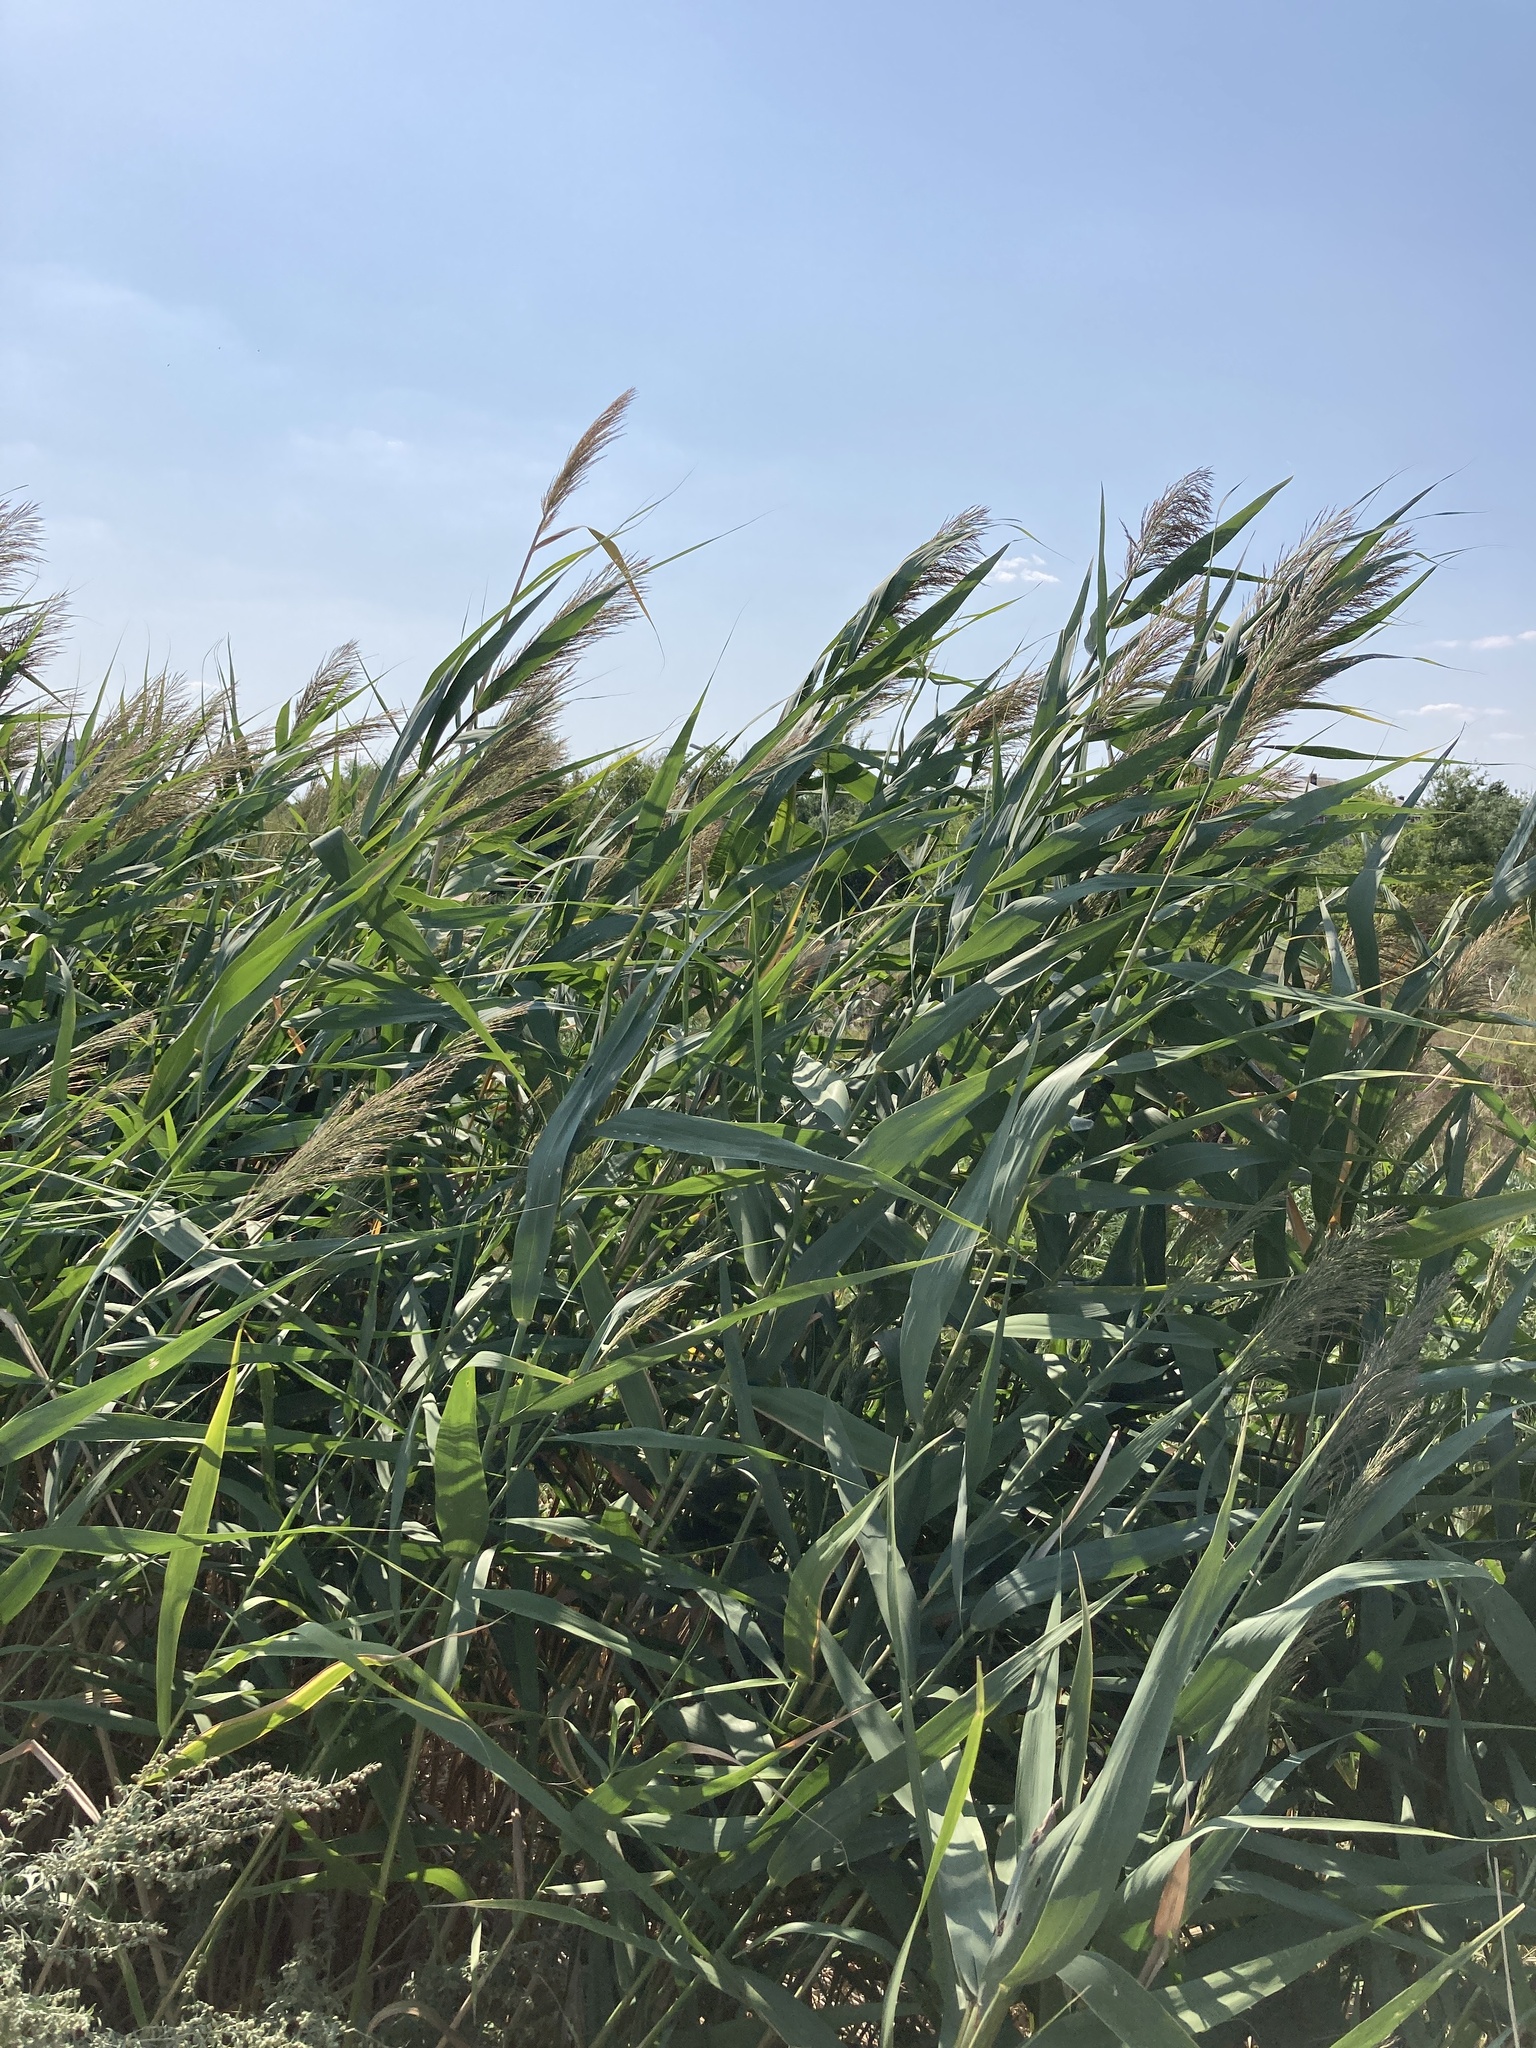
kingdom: Plantae
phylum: Tracheophyta
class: Liliopsida
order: Poales
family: Poaceae
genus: Phragmites
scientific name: Phragmites australis
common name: Common reed
